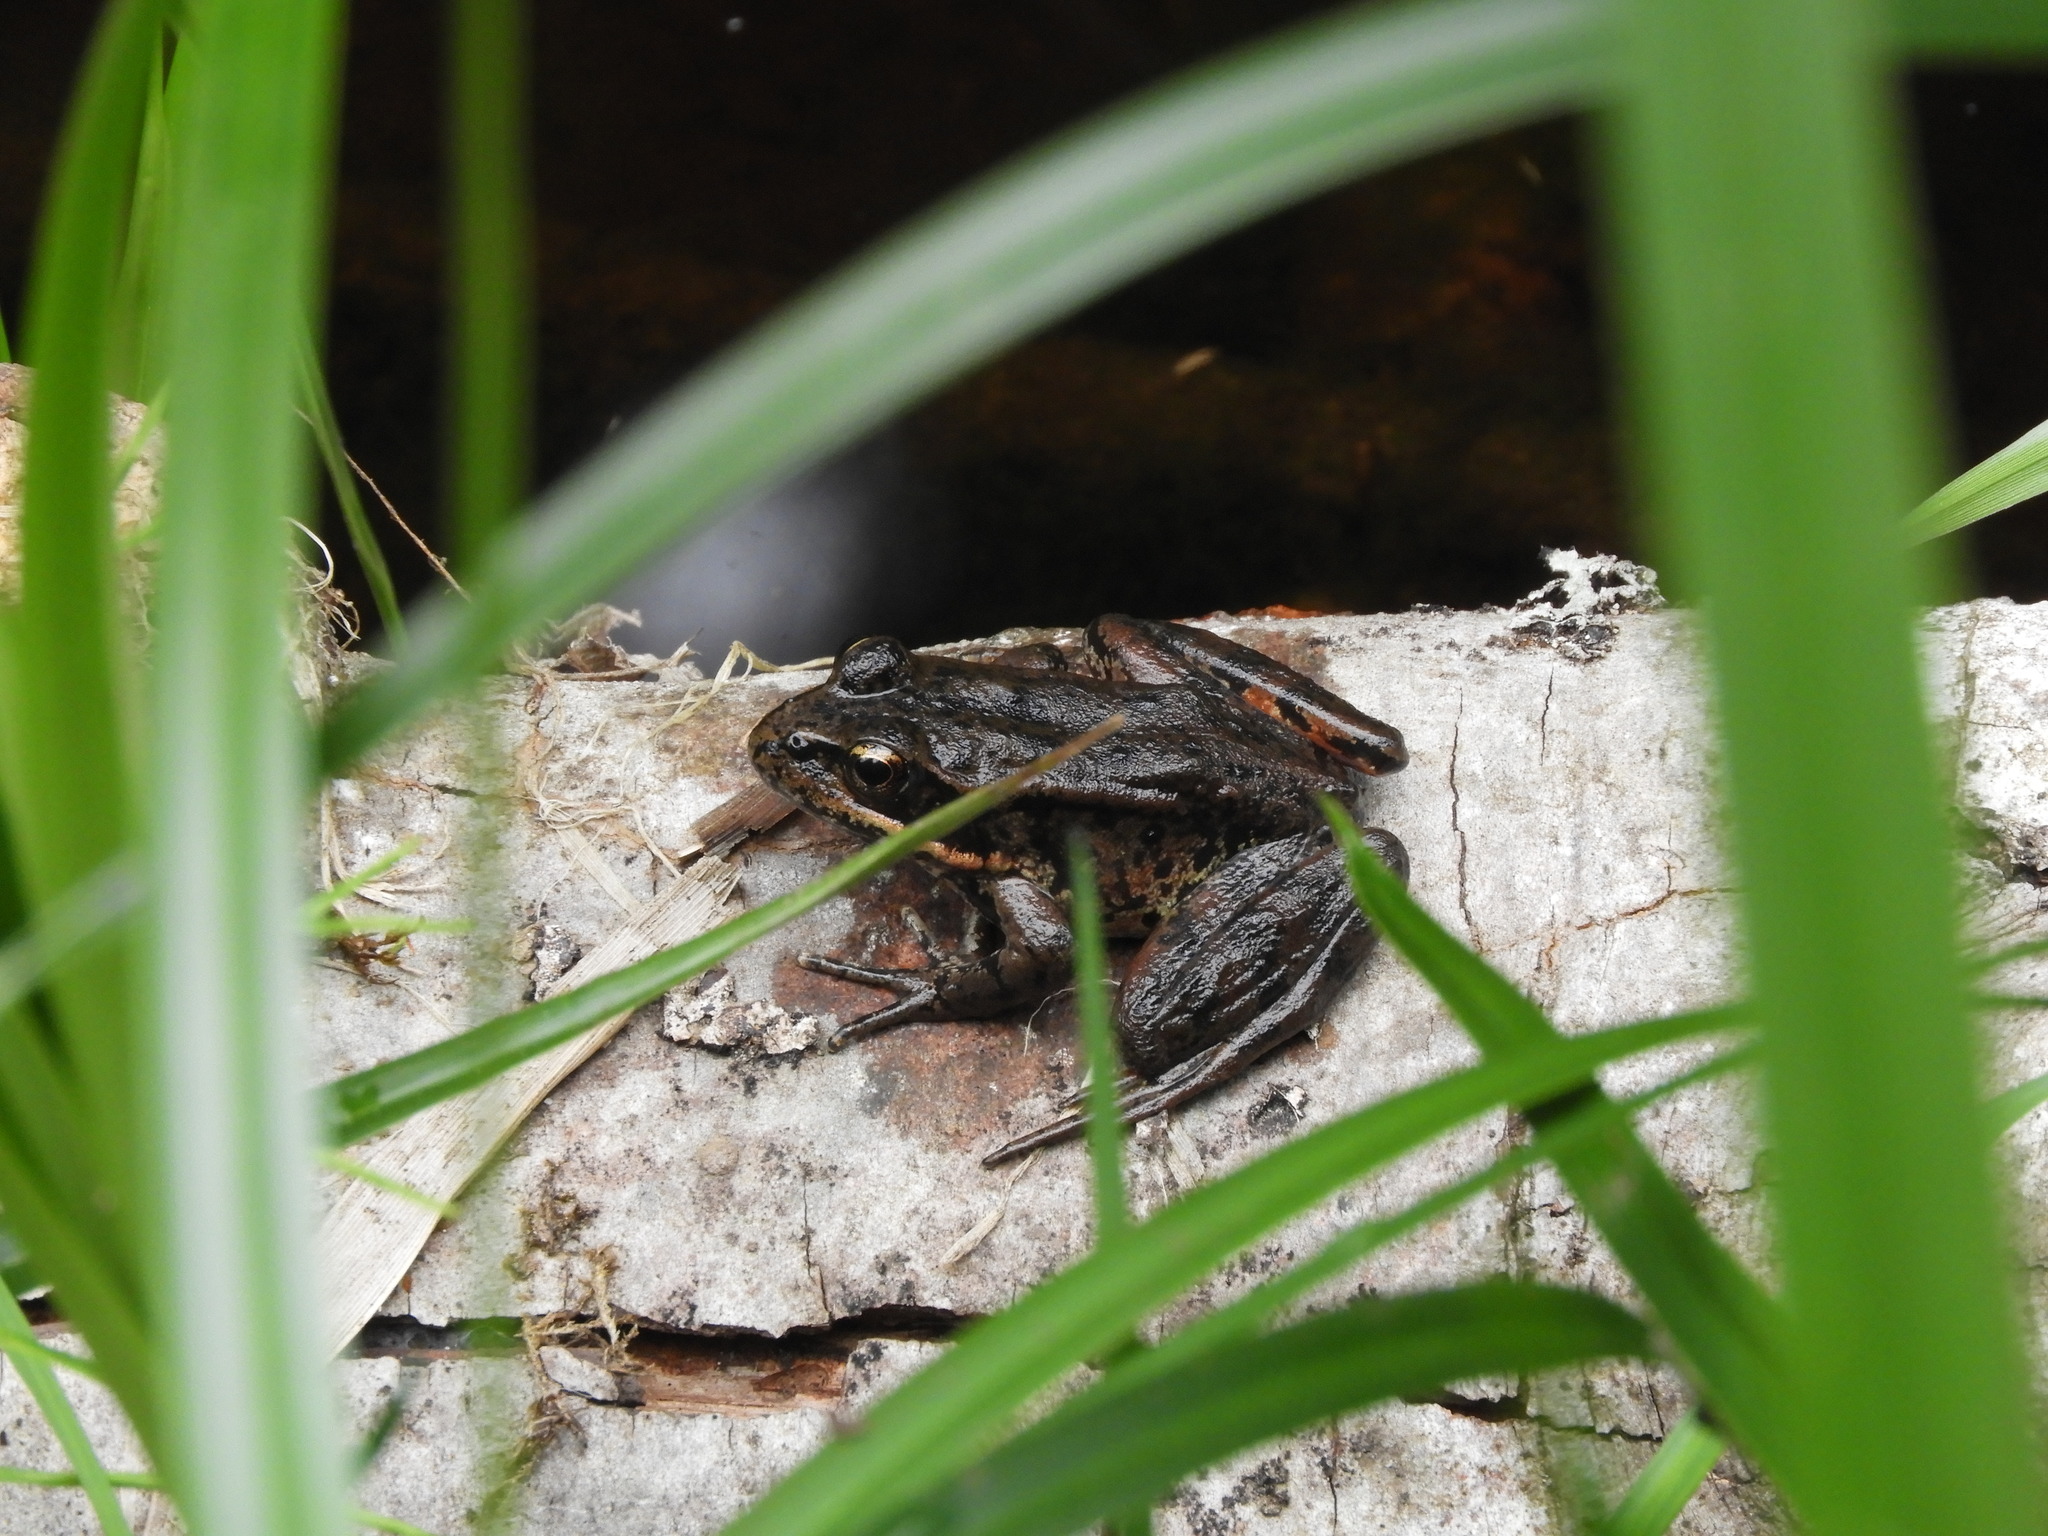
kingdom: Animalia
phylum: Chordata
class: Amphibia
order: Anura
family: Ranidae
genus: Rana
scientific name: Rana aurora
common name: Red-legged frog
